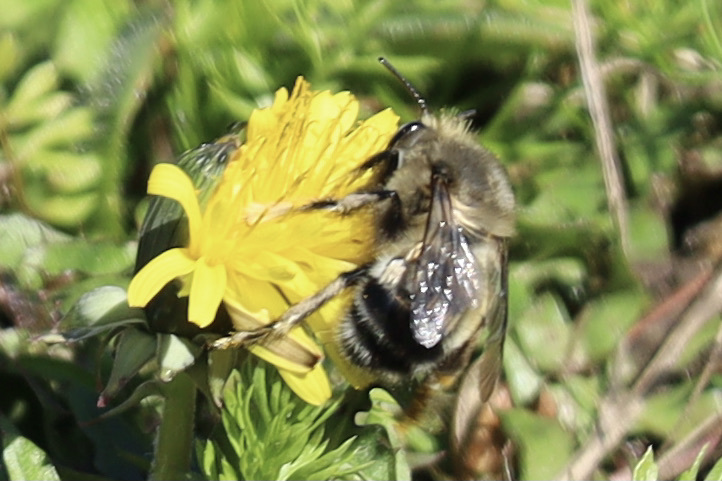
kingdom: Animalia
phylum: Arthropoda
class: Insecta
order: Hymenoptera
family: Apidae
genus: Anthophora
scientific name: Anthophora pacifica
